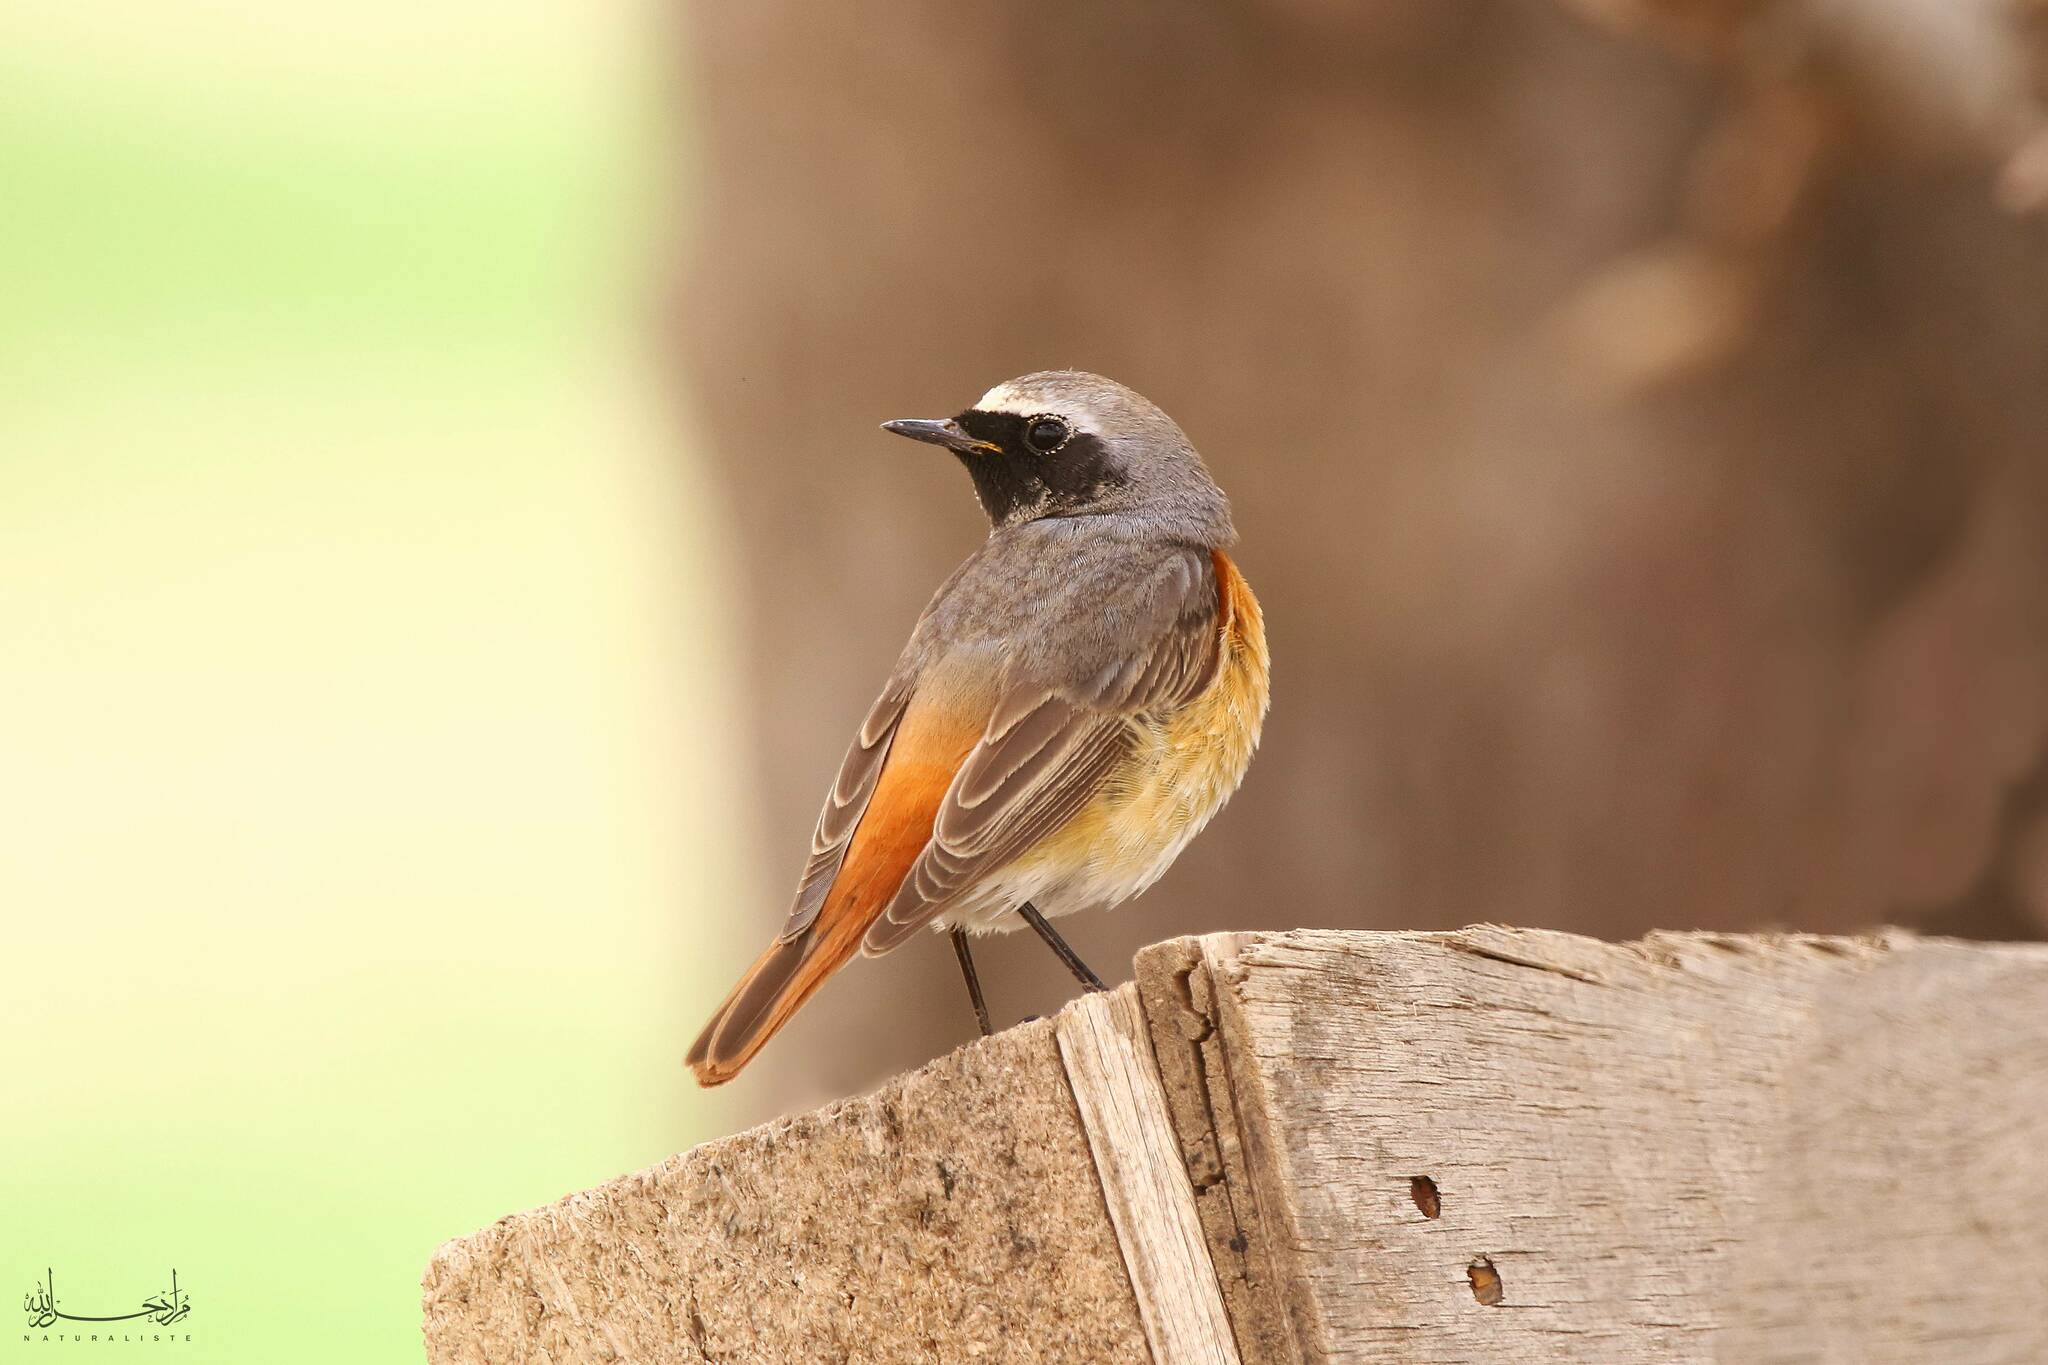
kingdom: Animalia
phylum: Chordata
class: Aves
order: Passeriformes
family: Muscicapidae
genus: Phoenicurus
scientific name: Phoenicurus phoenicurus
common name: Common redstart
